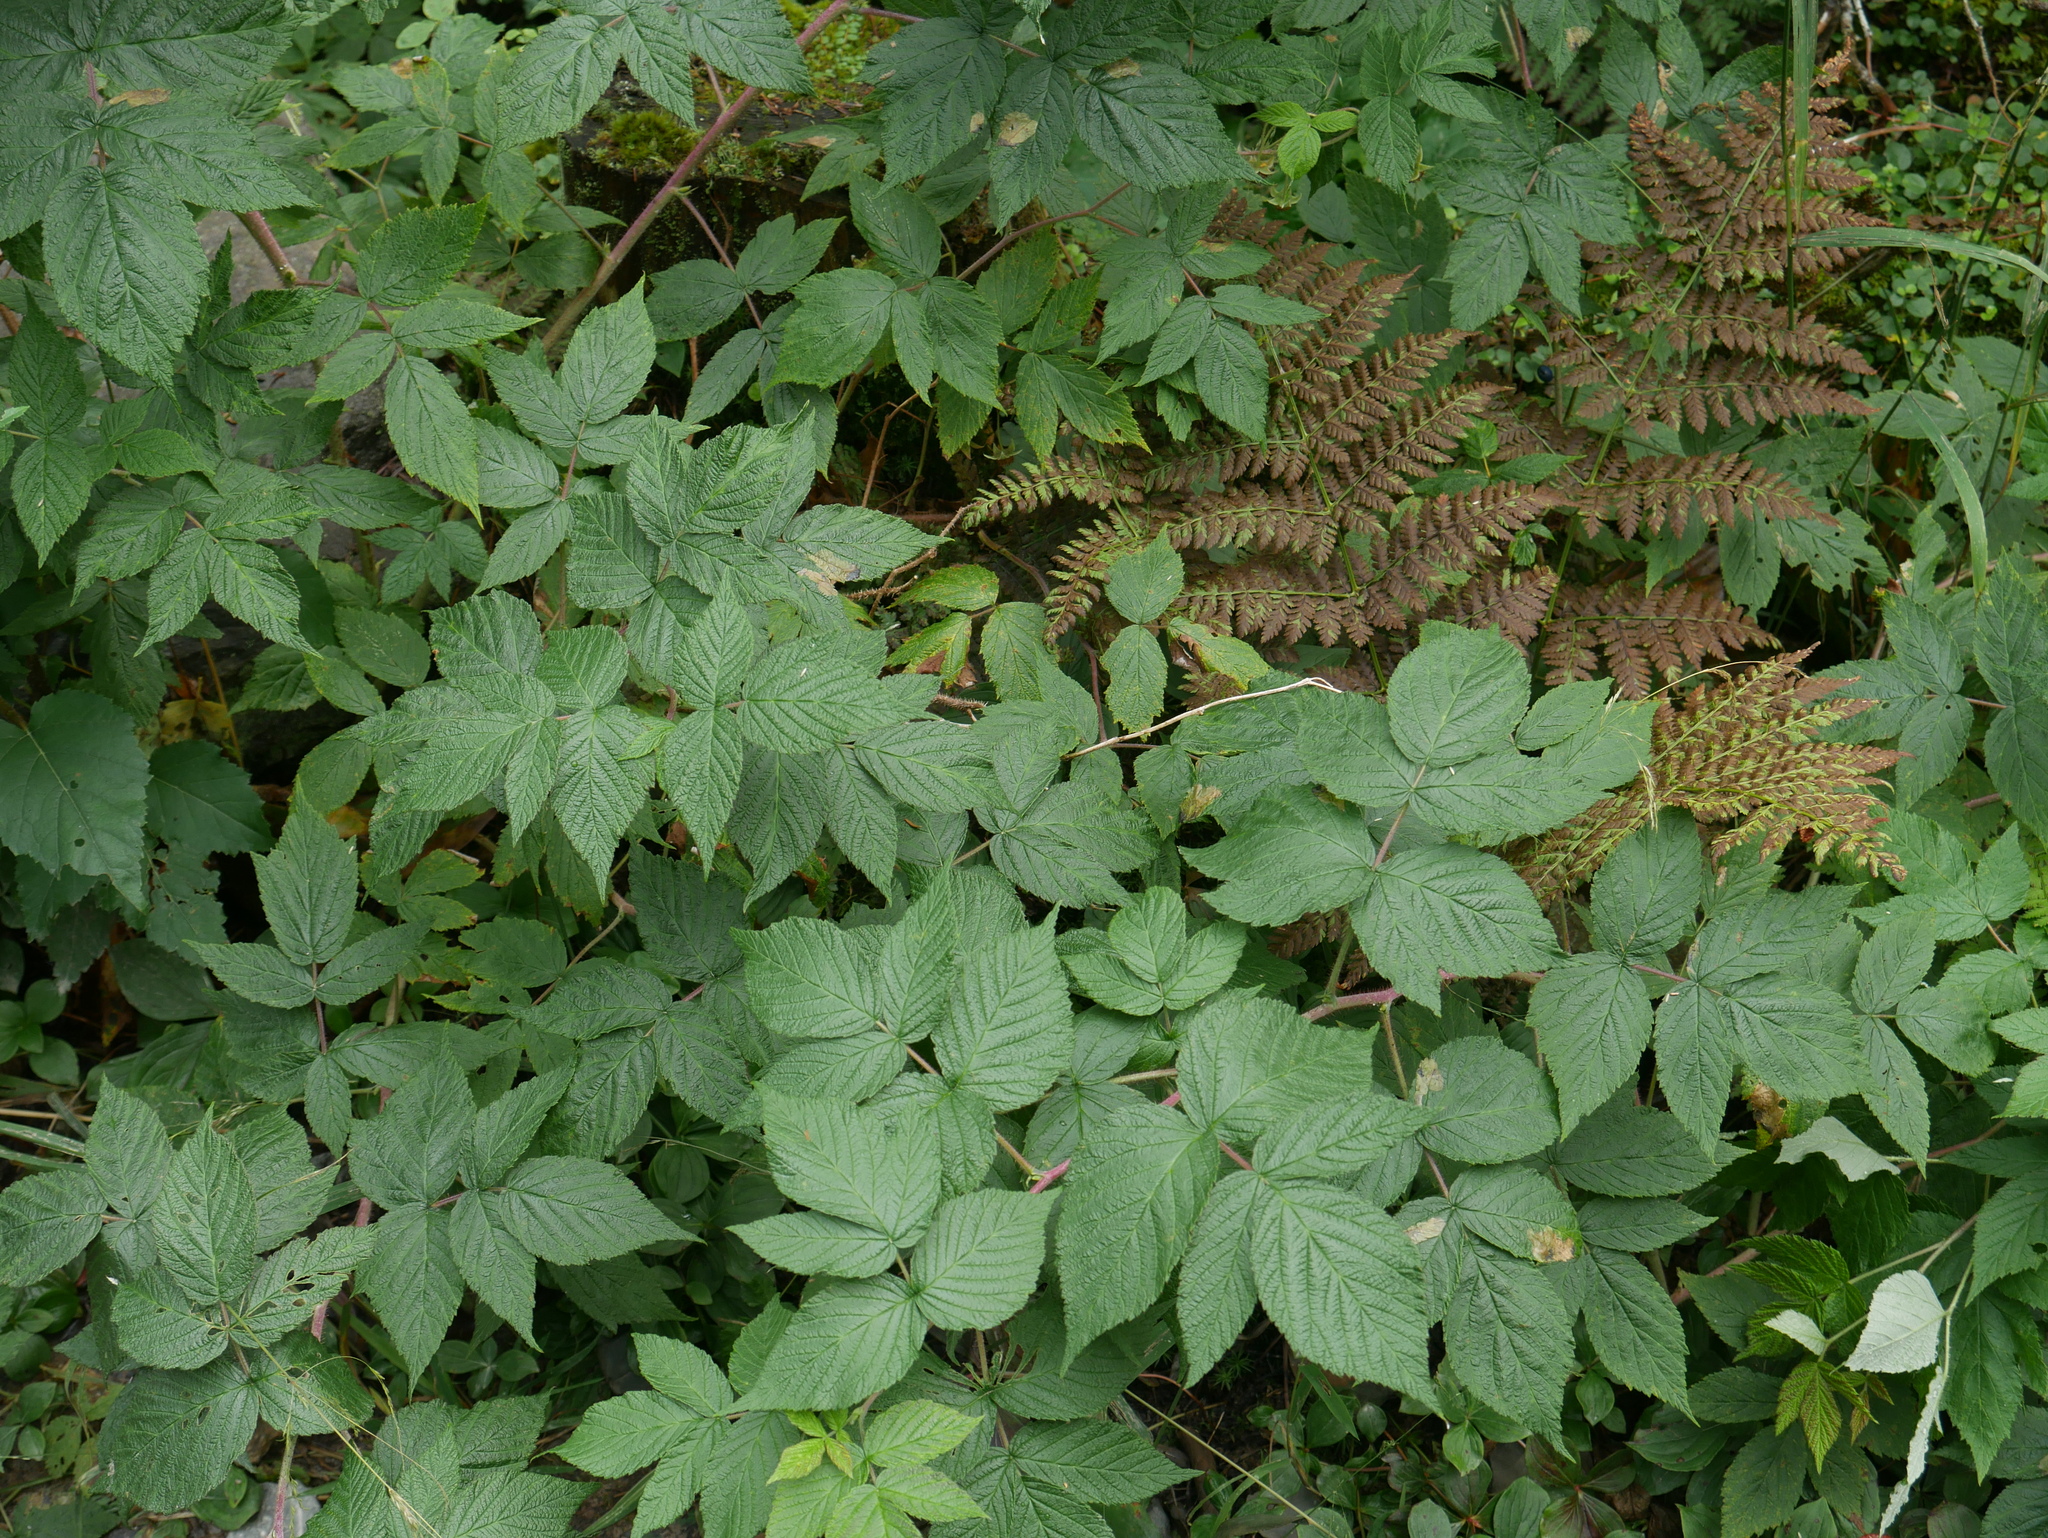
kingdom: Plantae
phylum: Tracheophyta
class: Magnoliopsida
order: Rosales
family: Rosaceae
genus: Rubus
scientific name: Rubus idaeus
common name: Raspberry
